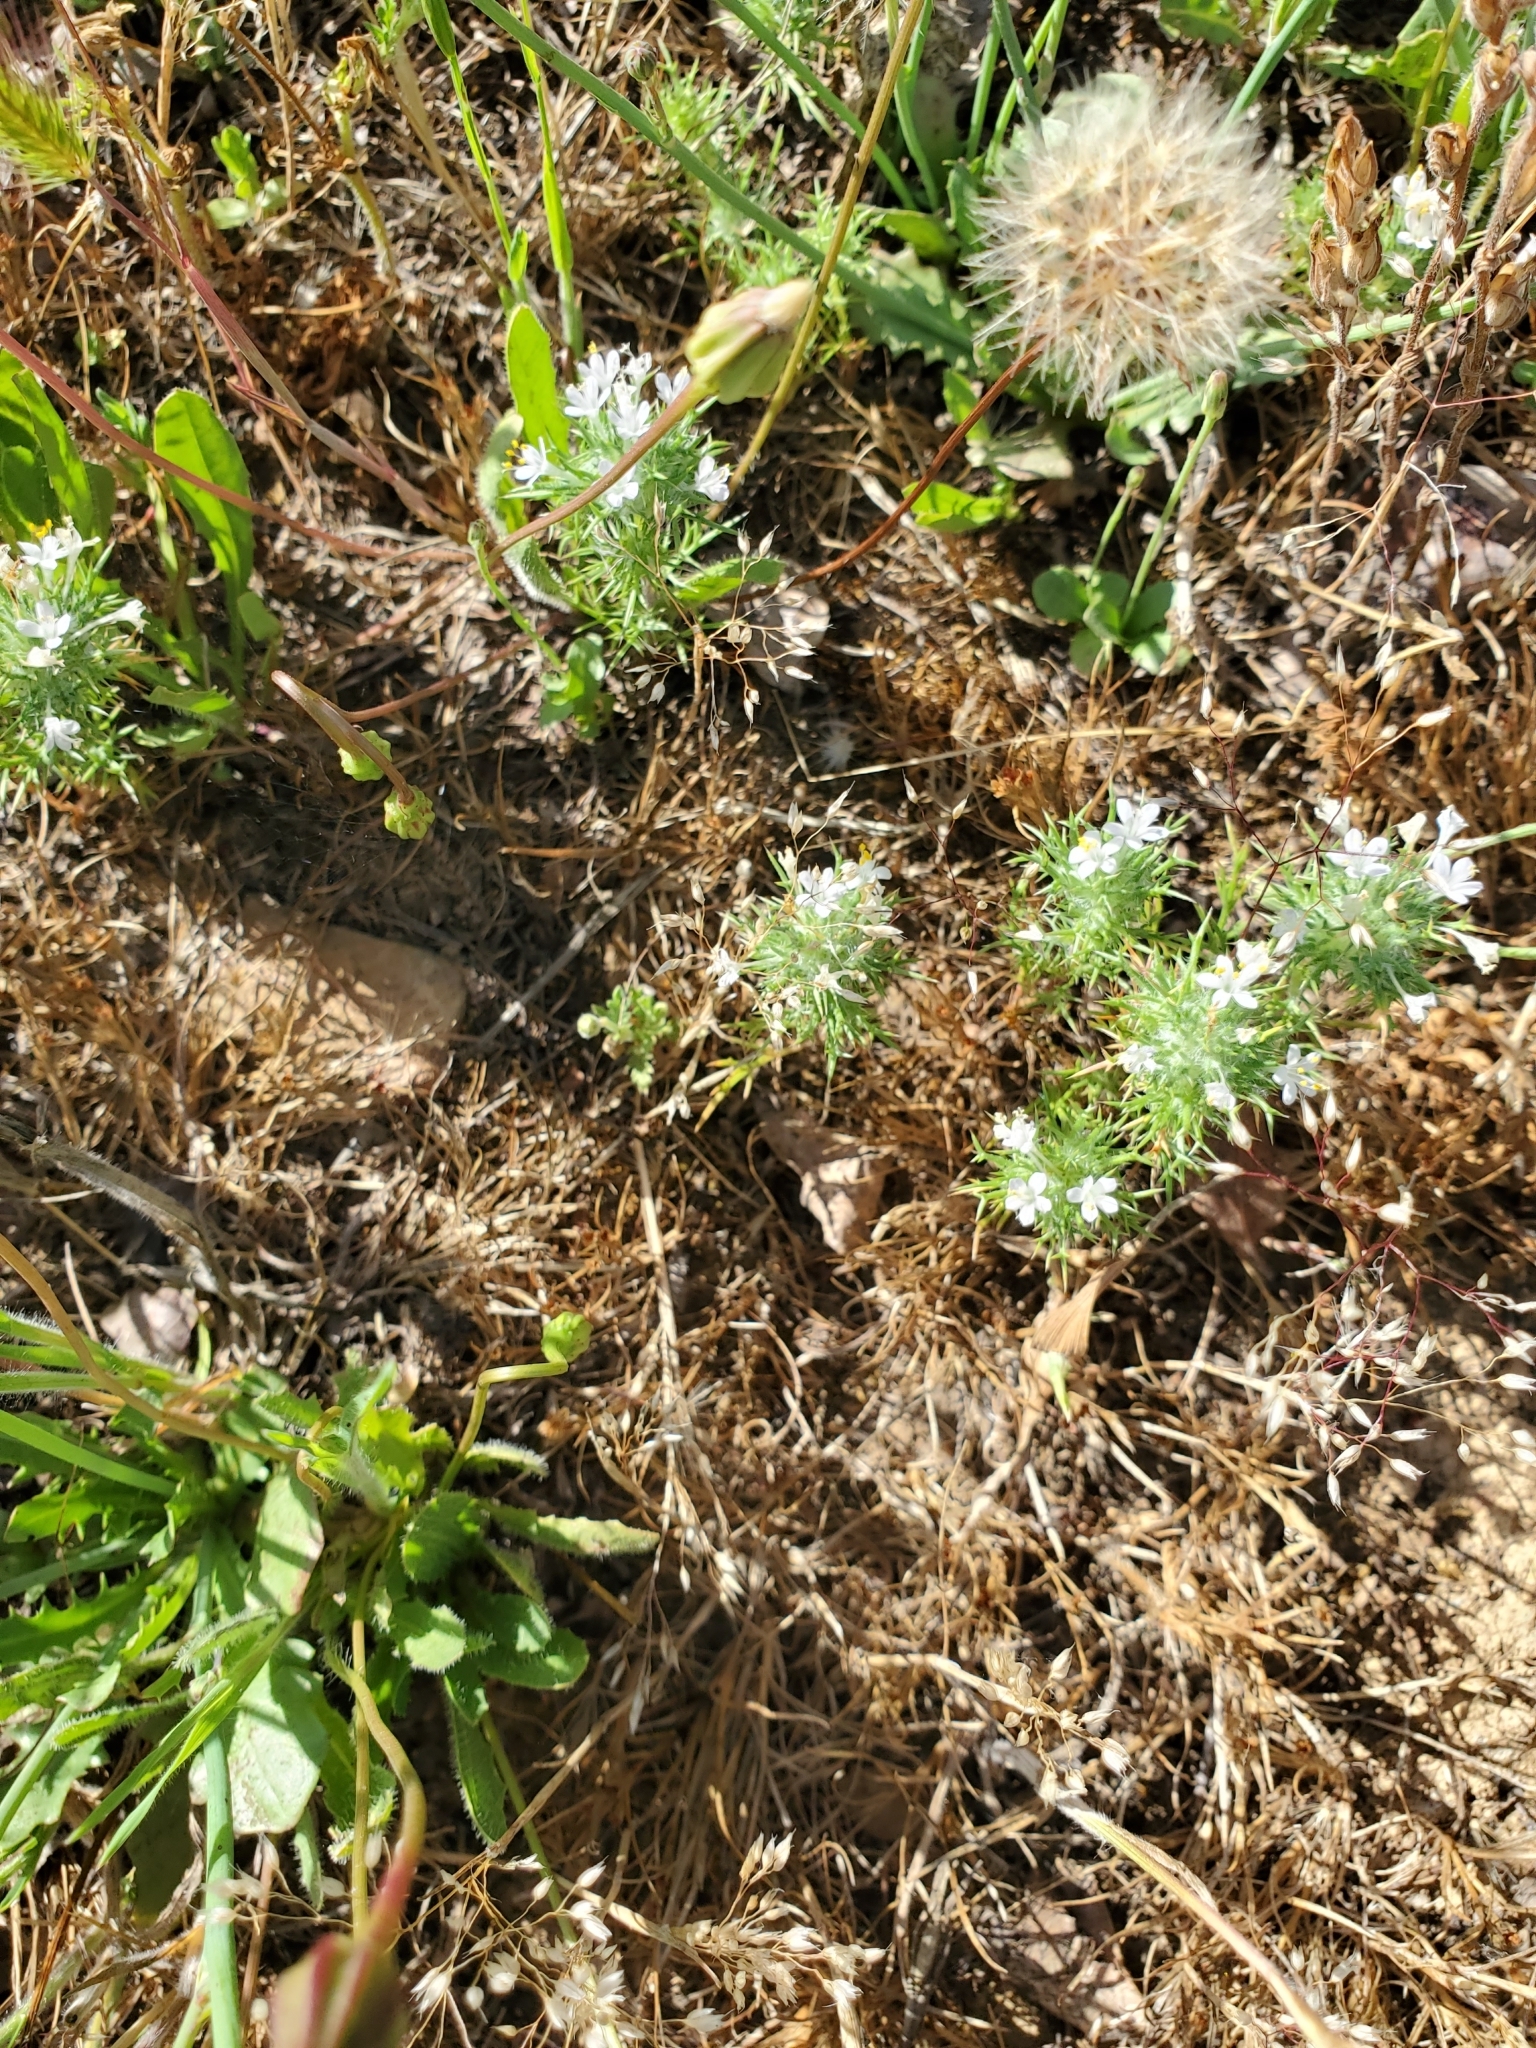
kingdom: Plantae
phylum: Tracheophyta
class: Magnoliopsida
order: Ericales
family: Polemoniaceae
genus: Navarretia
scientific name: Navarretia intertexta
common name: Needle-leaved navarretia
